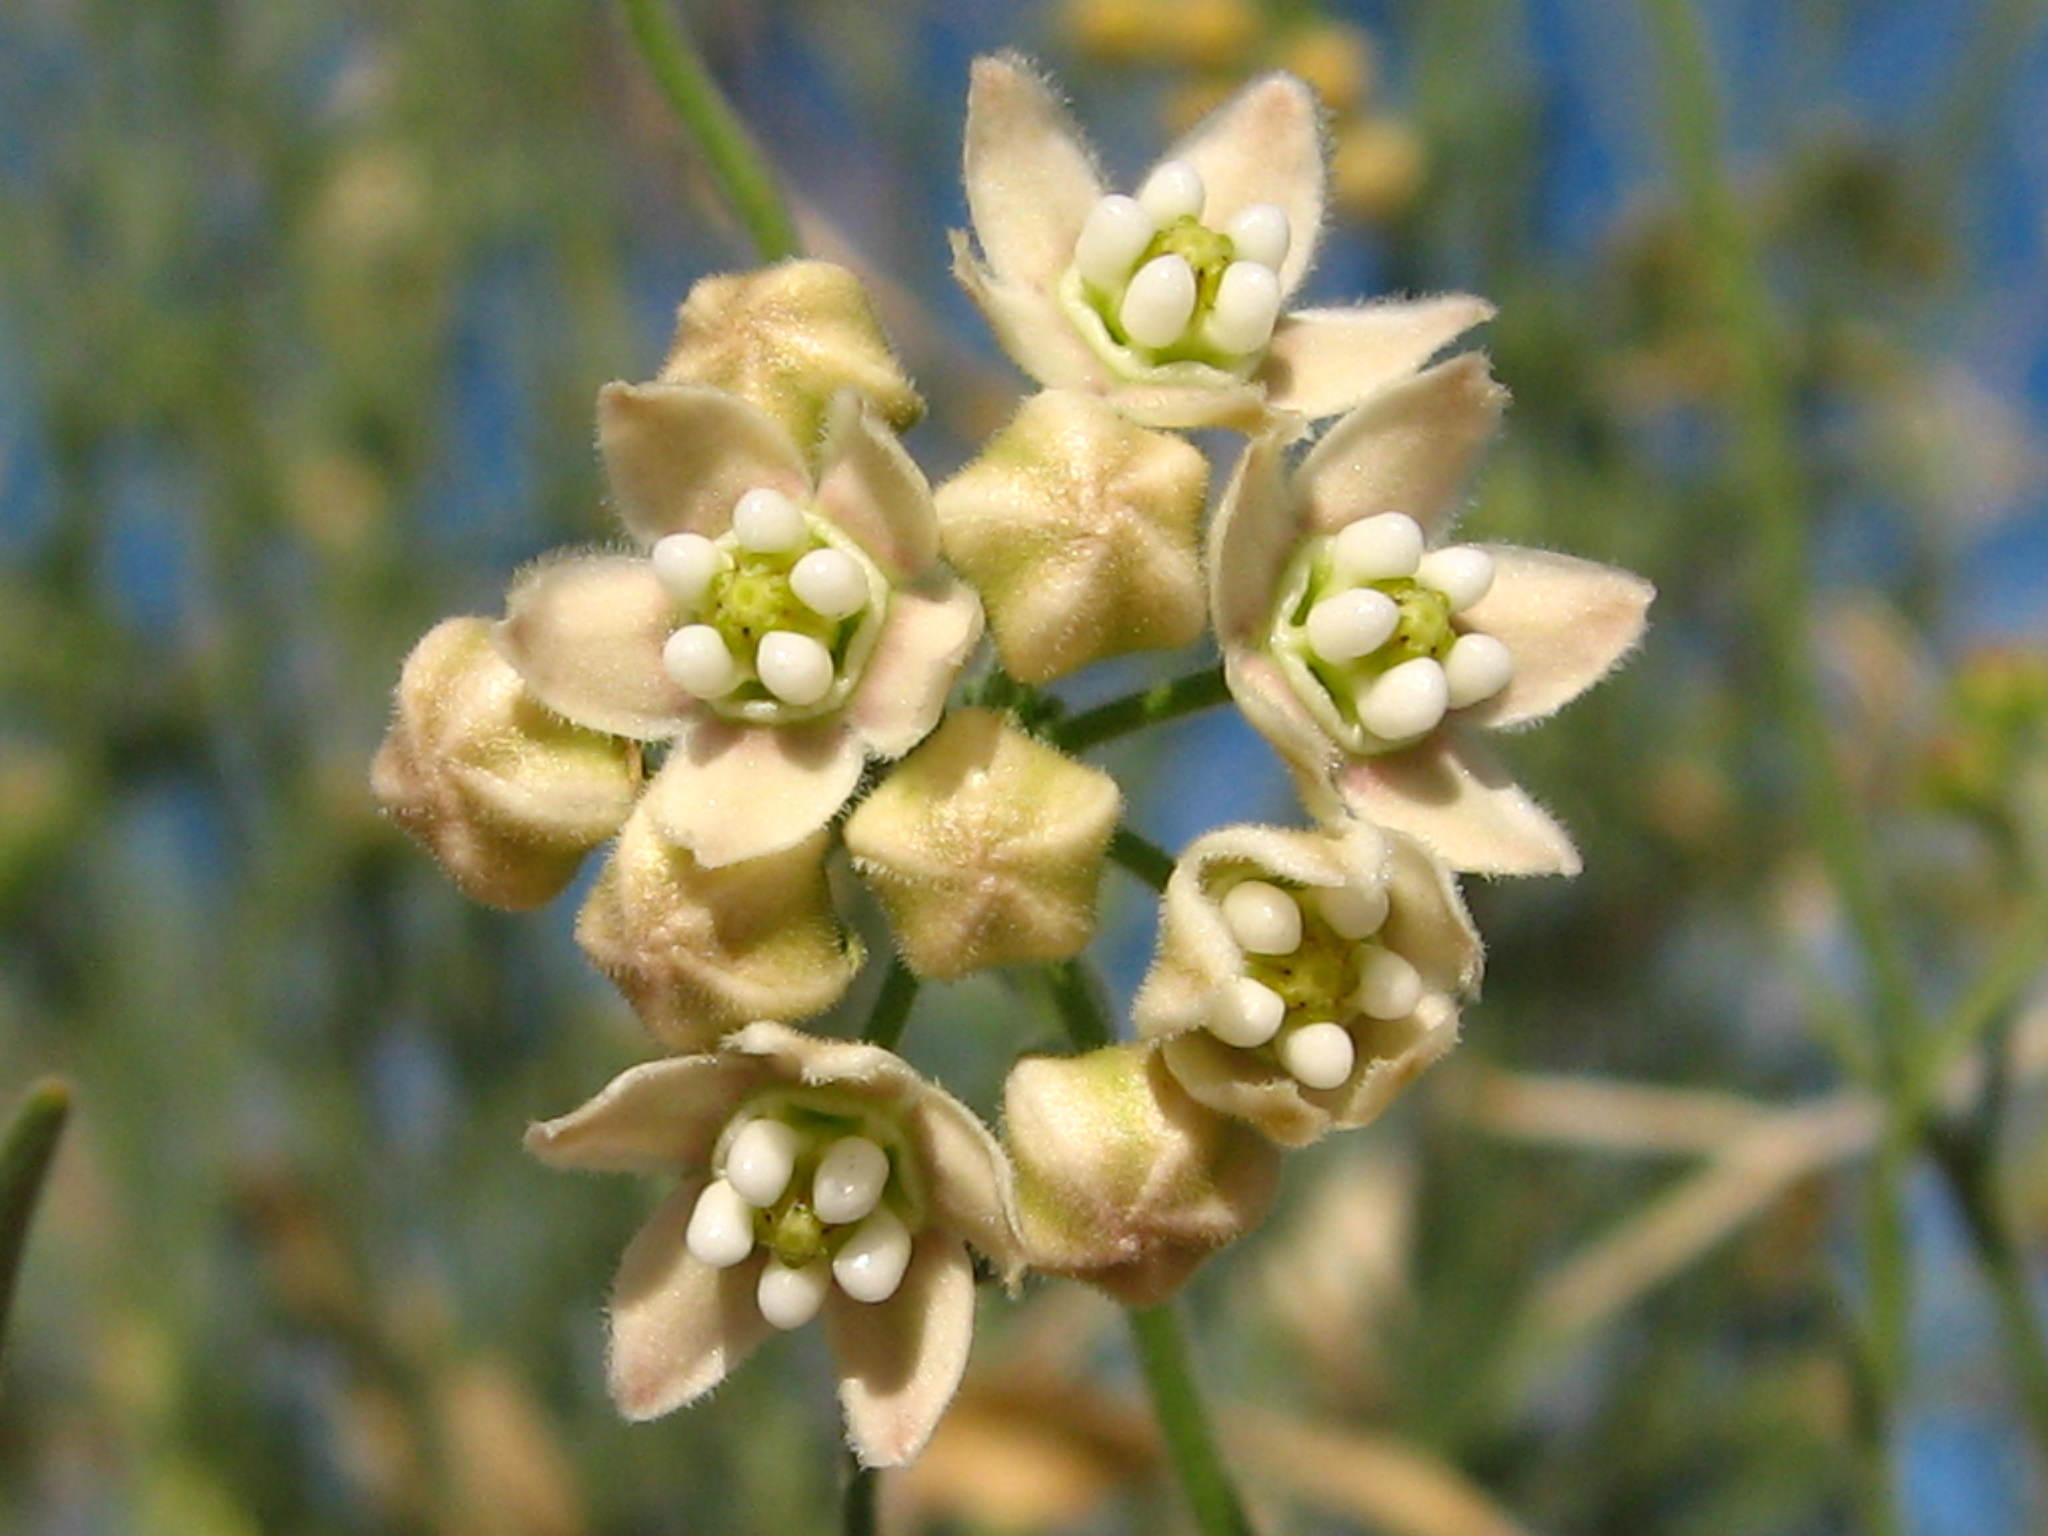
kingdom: Plantae
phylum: Tracheophyta
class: Magnoliopsida
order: Gentianales
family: Apocynaceae
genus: Funastrum
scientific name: Funastrum hirtellum
